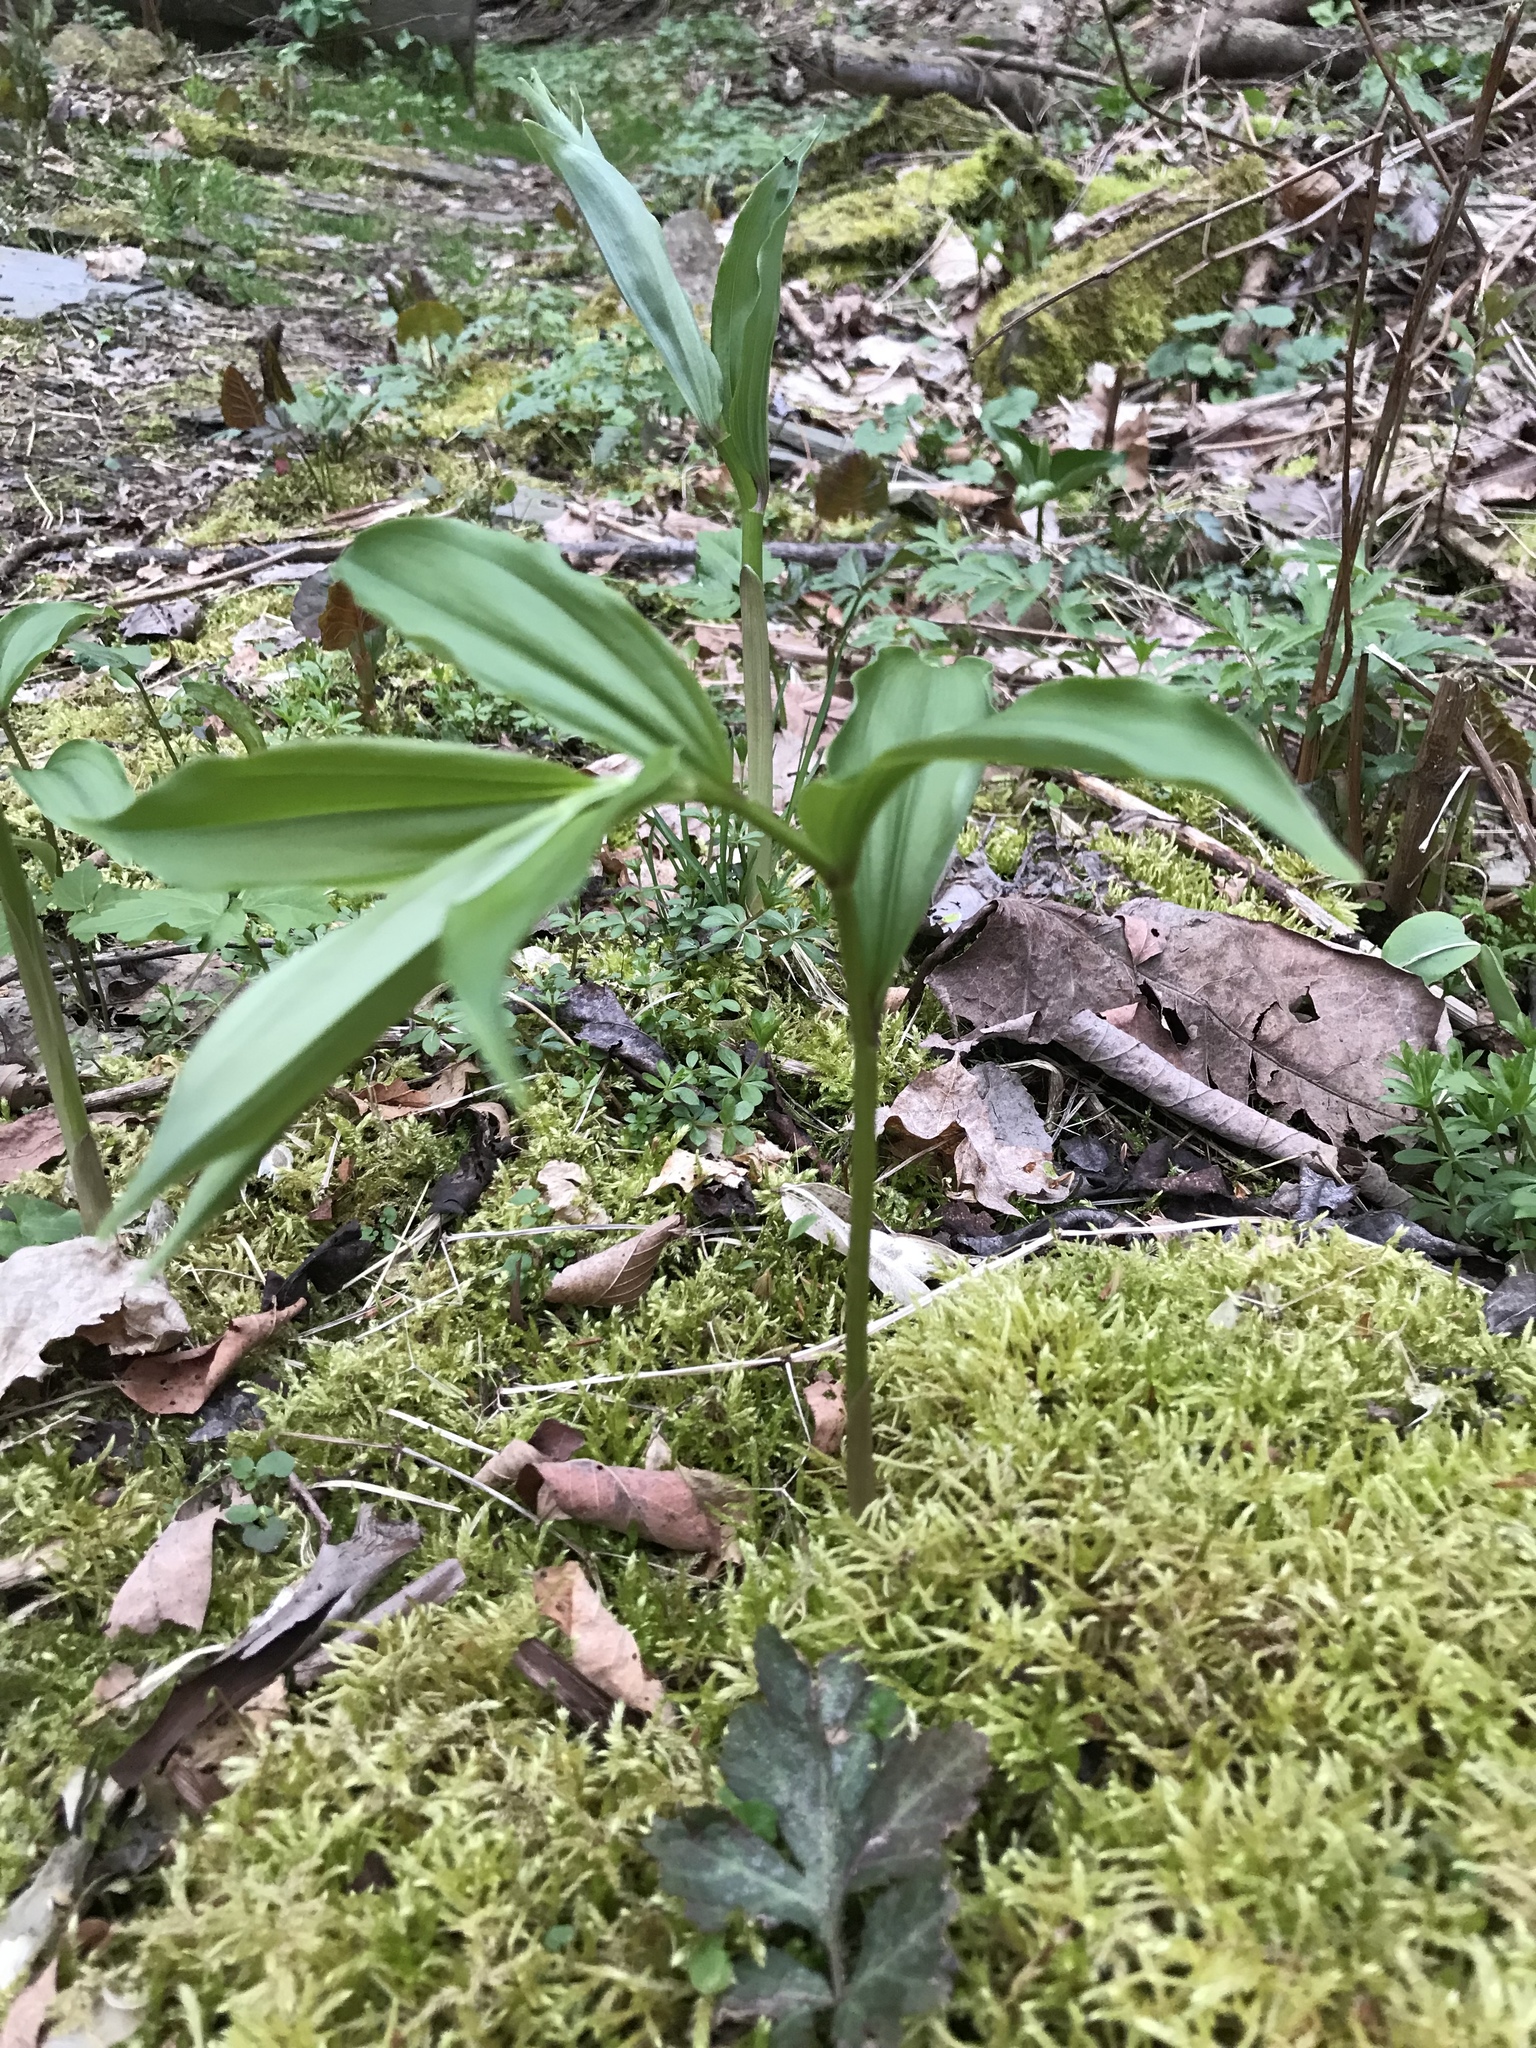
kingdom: Plantae
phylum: Tracheophyta
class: Liliopsida
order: Asparagales
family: Asparagaceae
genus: Maianthemum
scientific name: Maianthemum racemosum
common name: False spikenard
